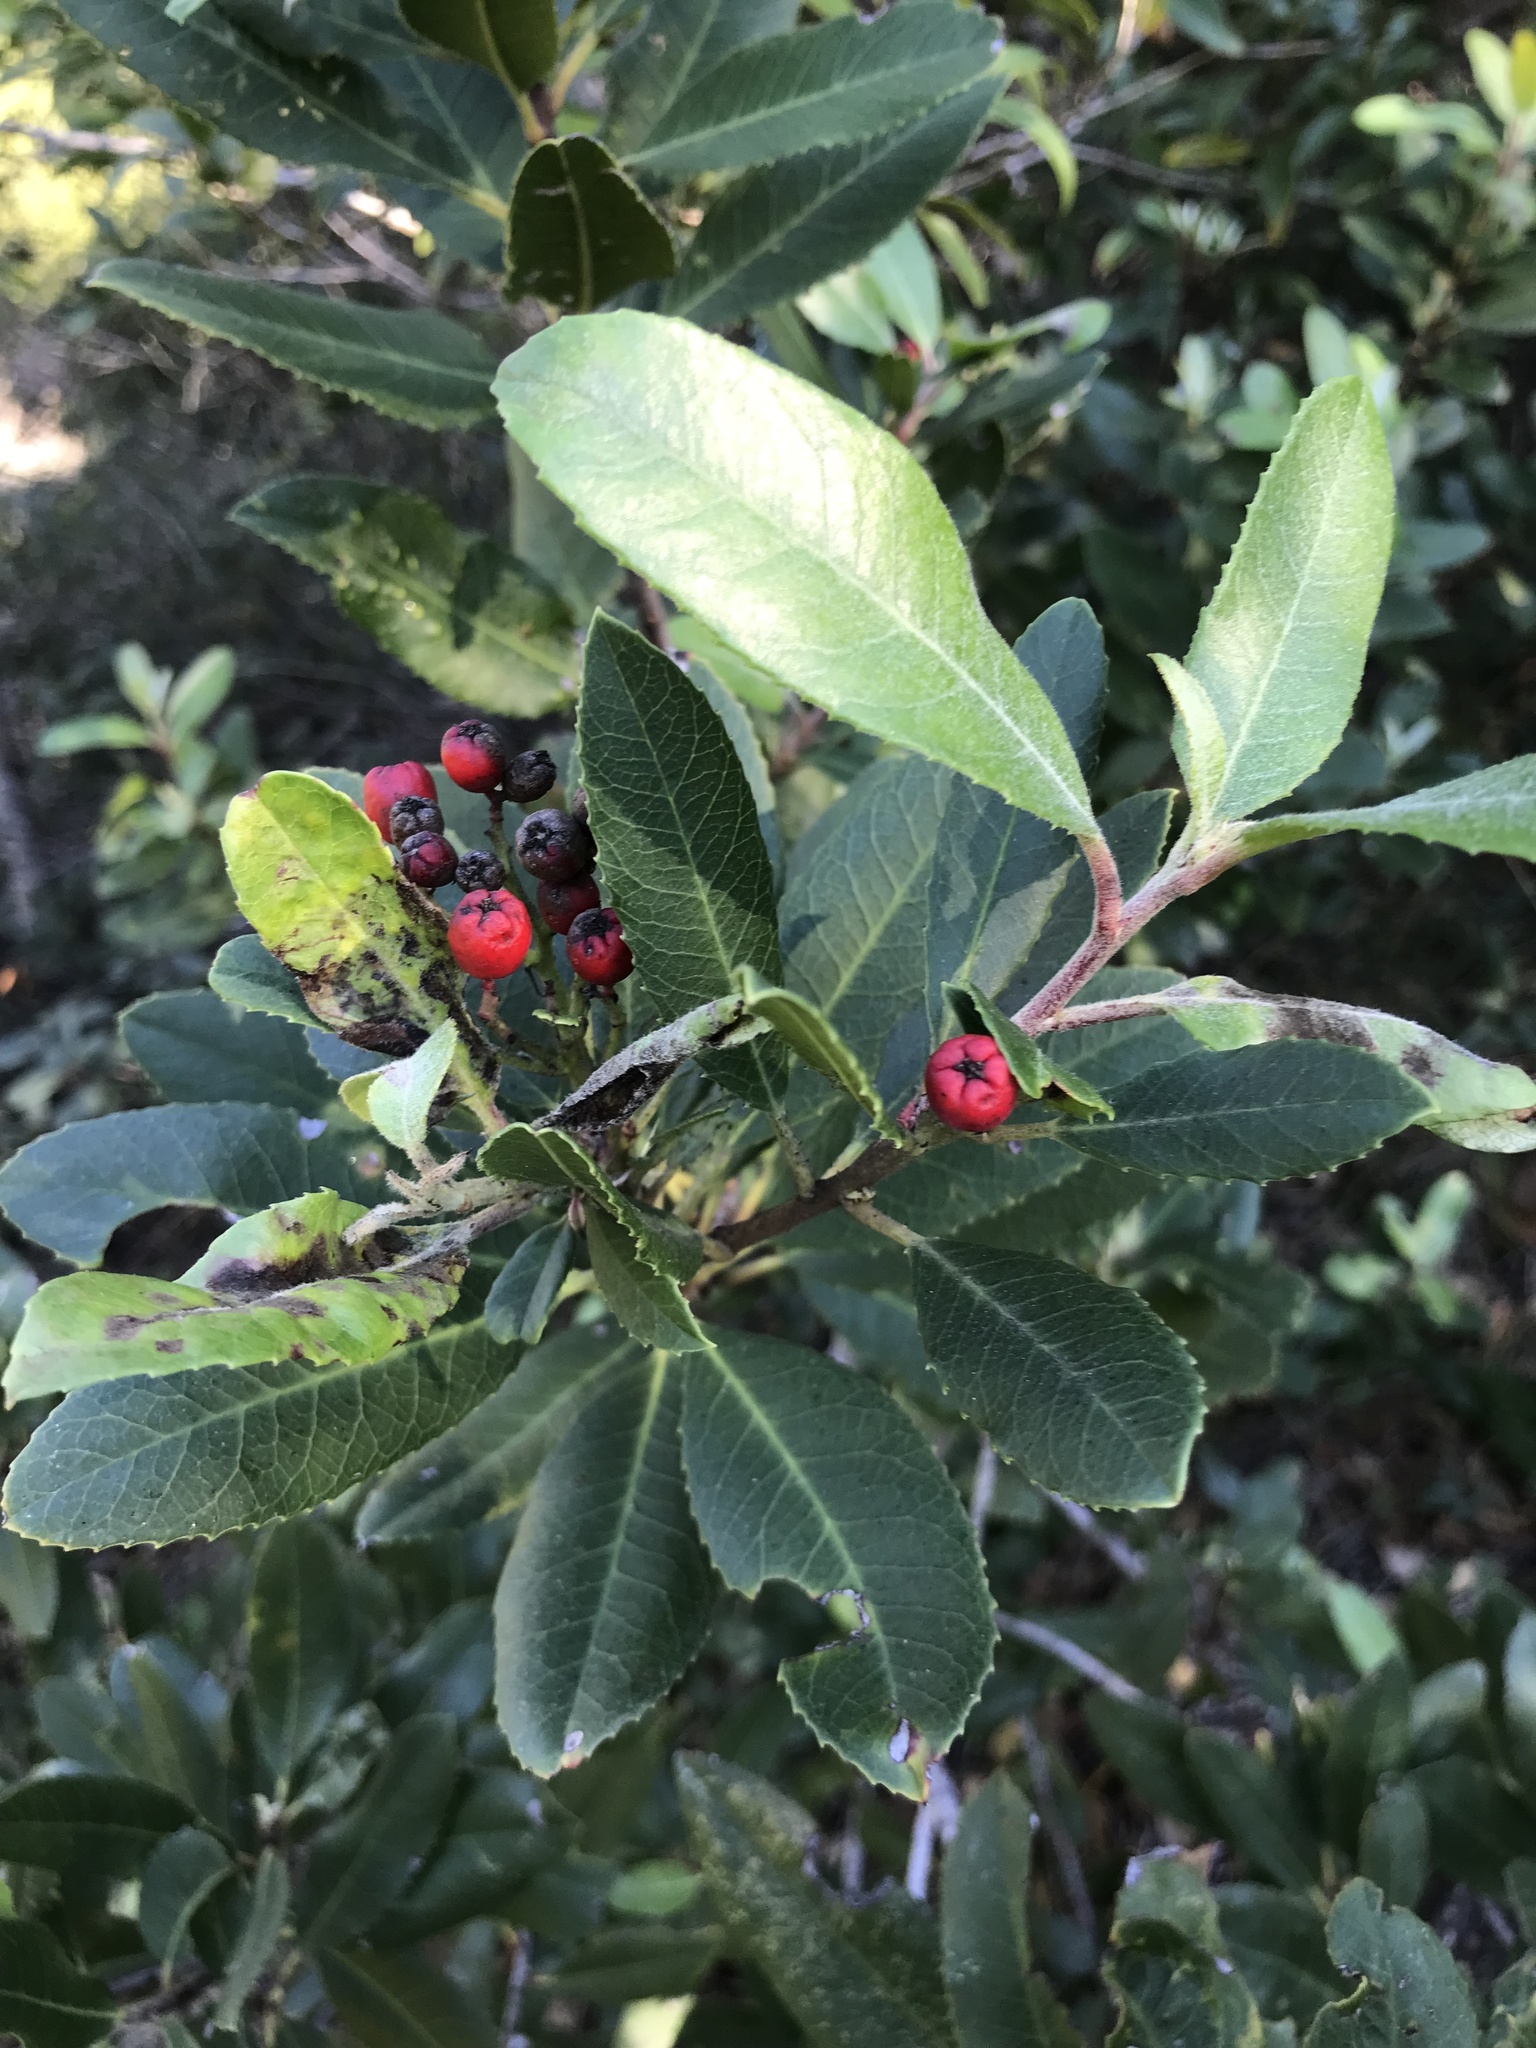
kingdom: Plantae
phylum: Tracheophyta
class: Magnoliopsida
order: Rosales
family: Rosaceae
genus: Heteromeles
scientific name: Heteromeles arbutifolia
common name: California-holly
